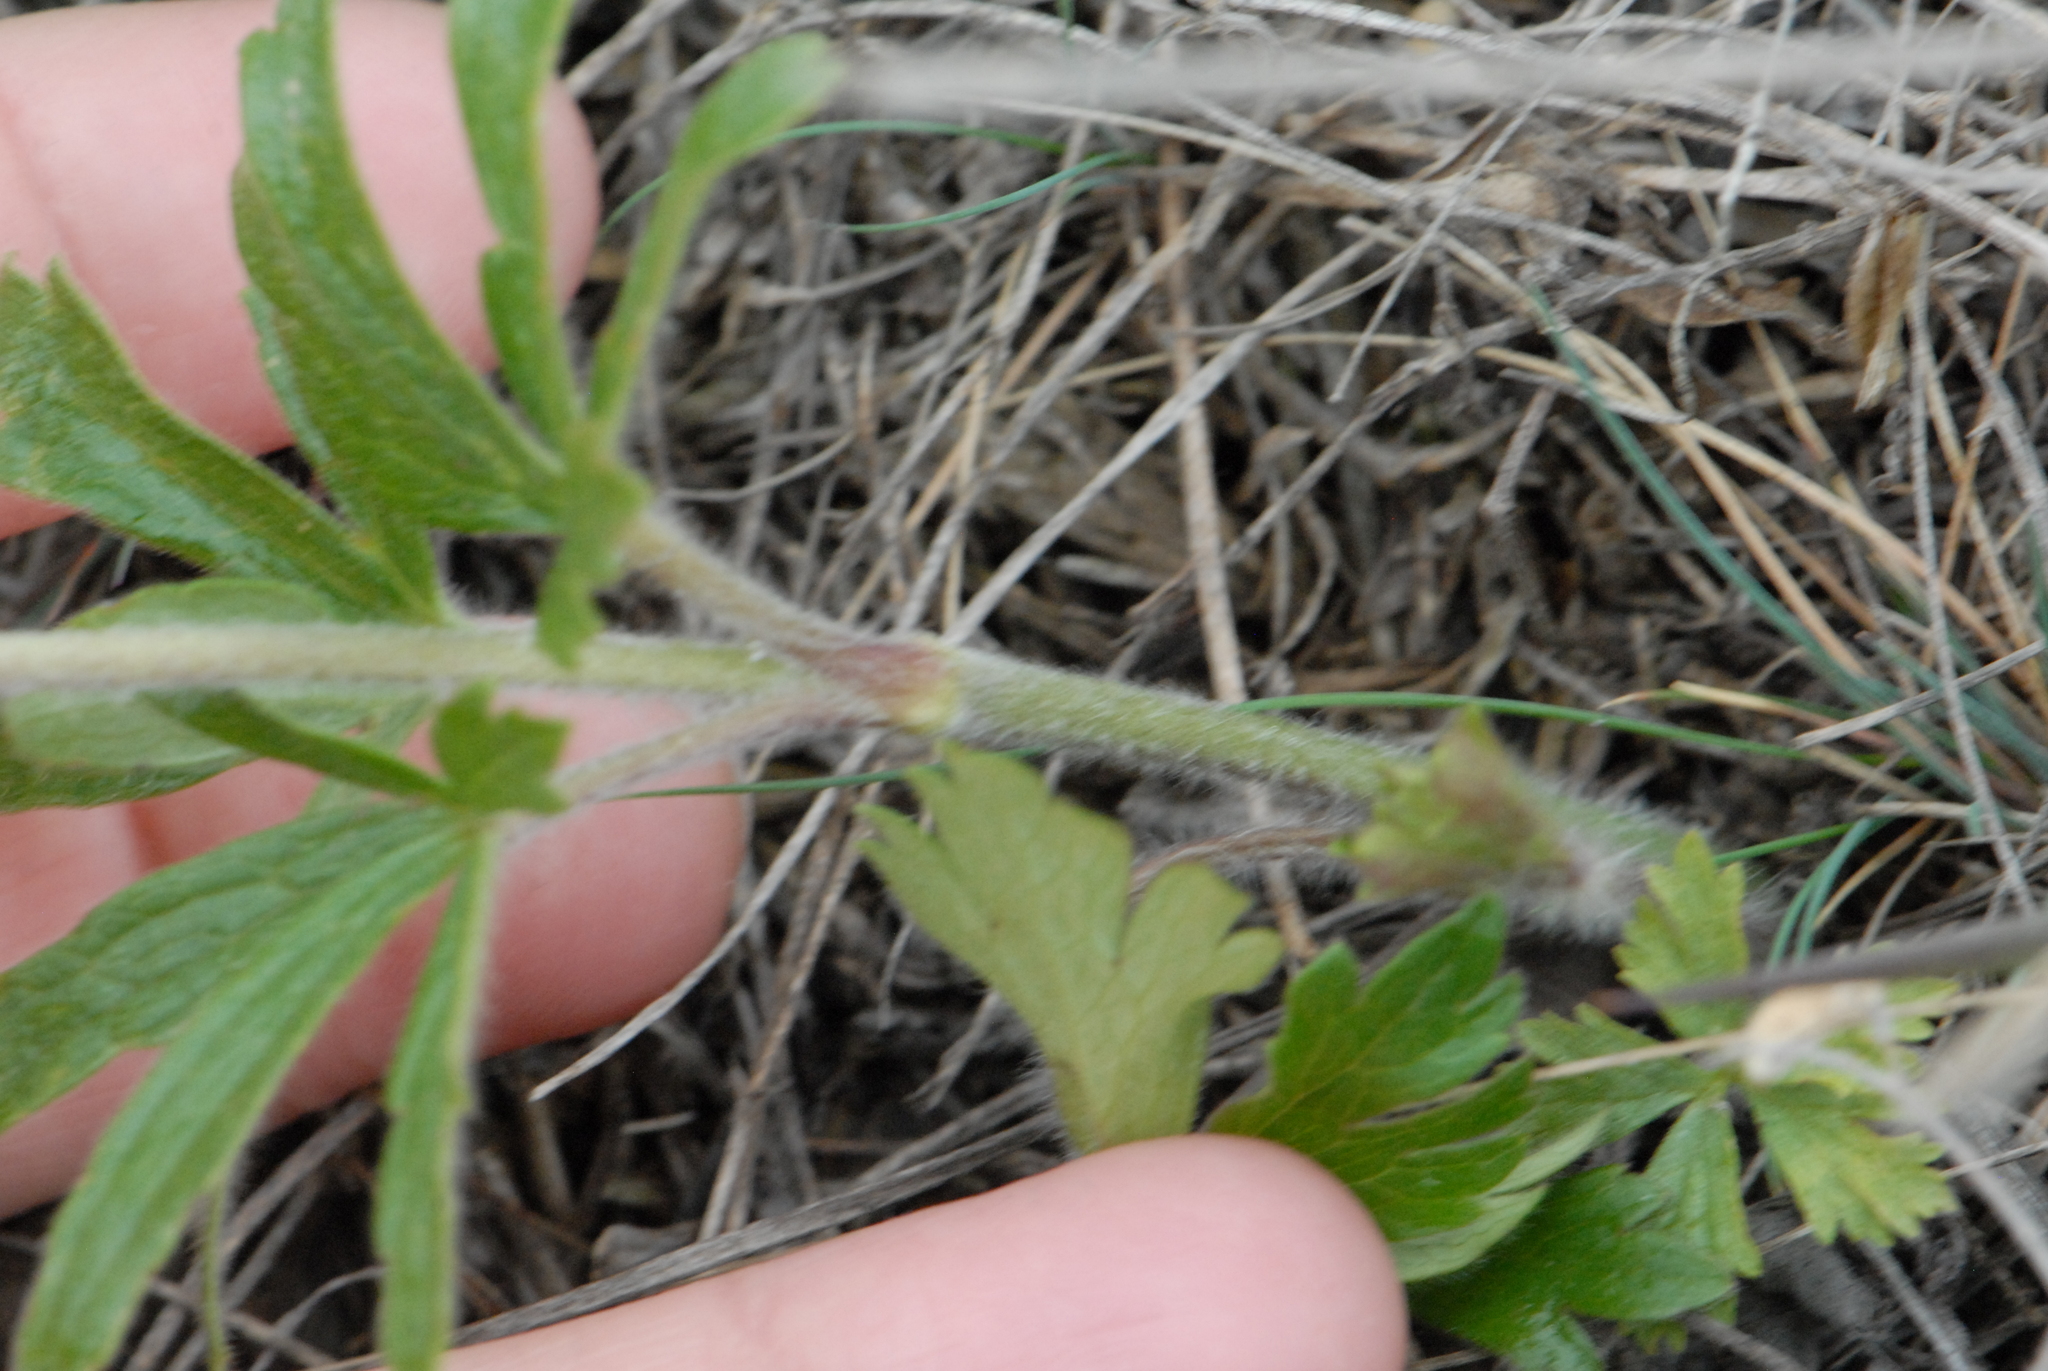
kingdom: Plantae
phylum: Tracheophyta
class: Magnoliopsida
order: Ranunculales
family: Ranunculaceae
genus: Anemone
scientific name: Anemone sylvestris
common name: Snowdrop anemone
